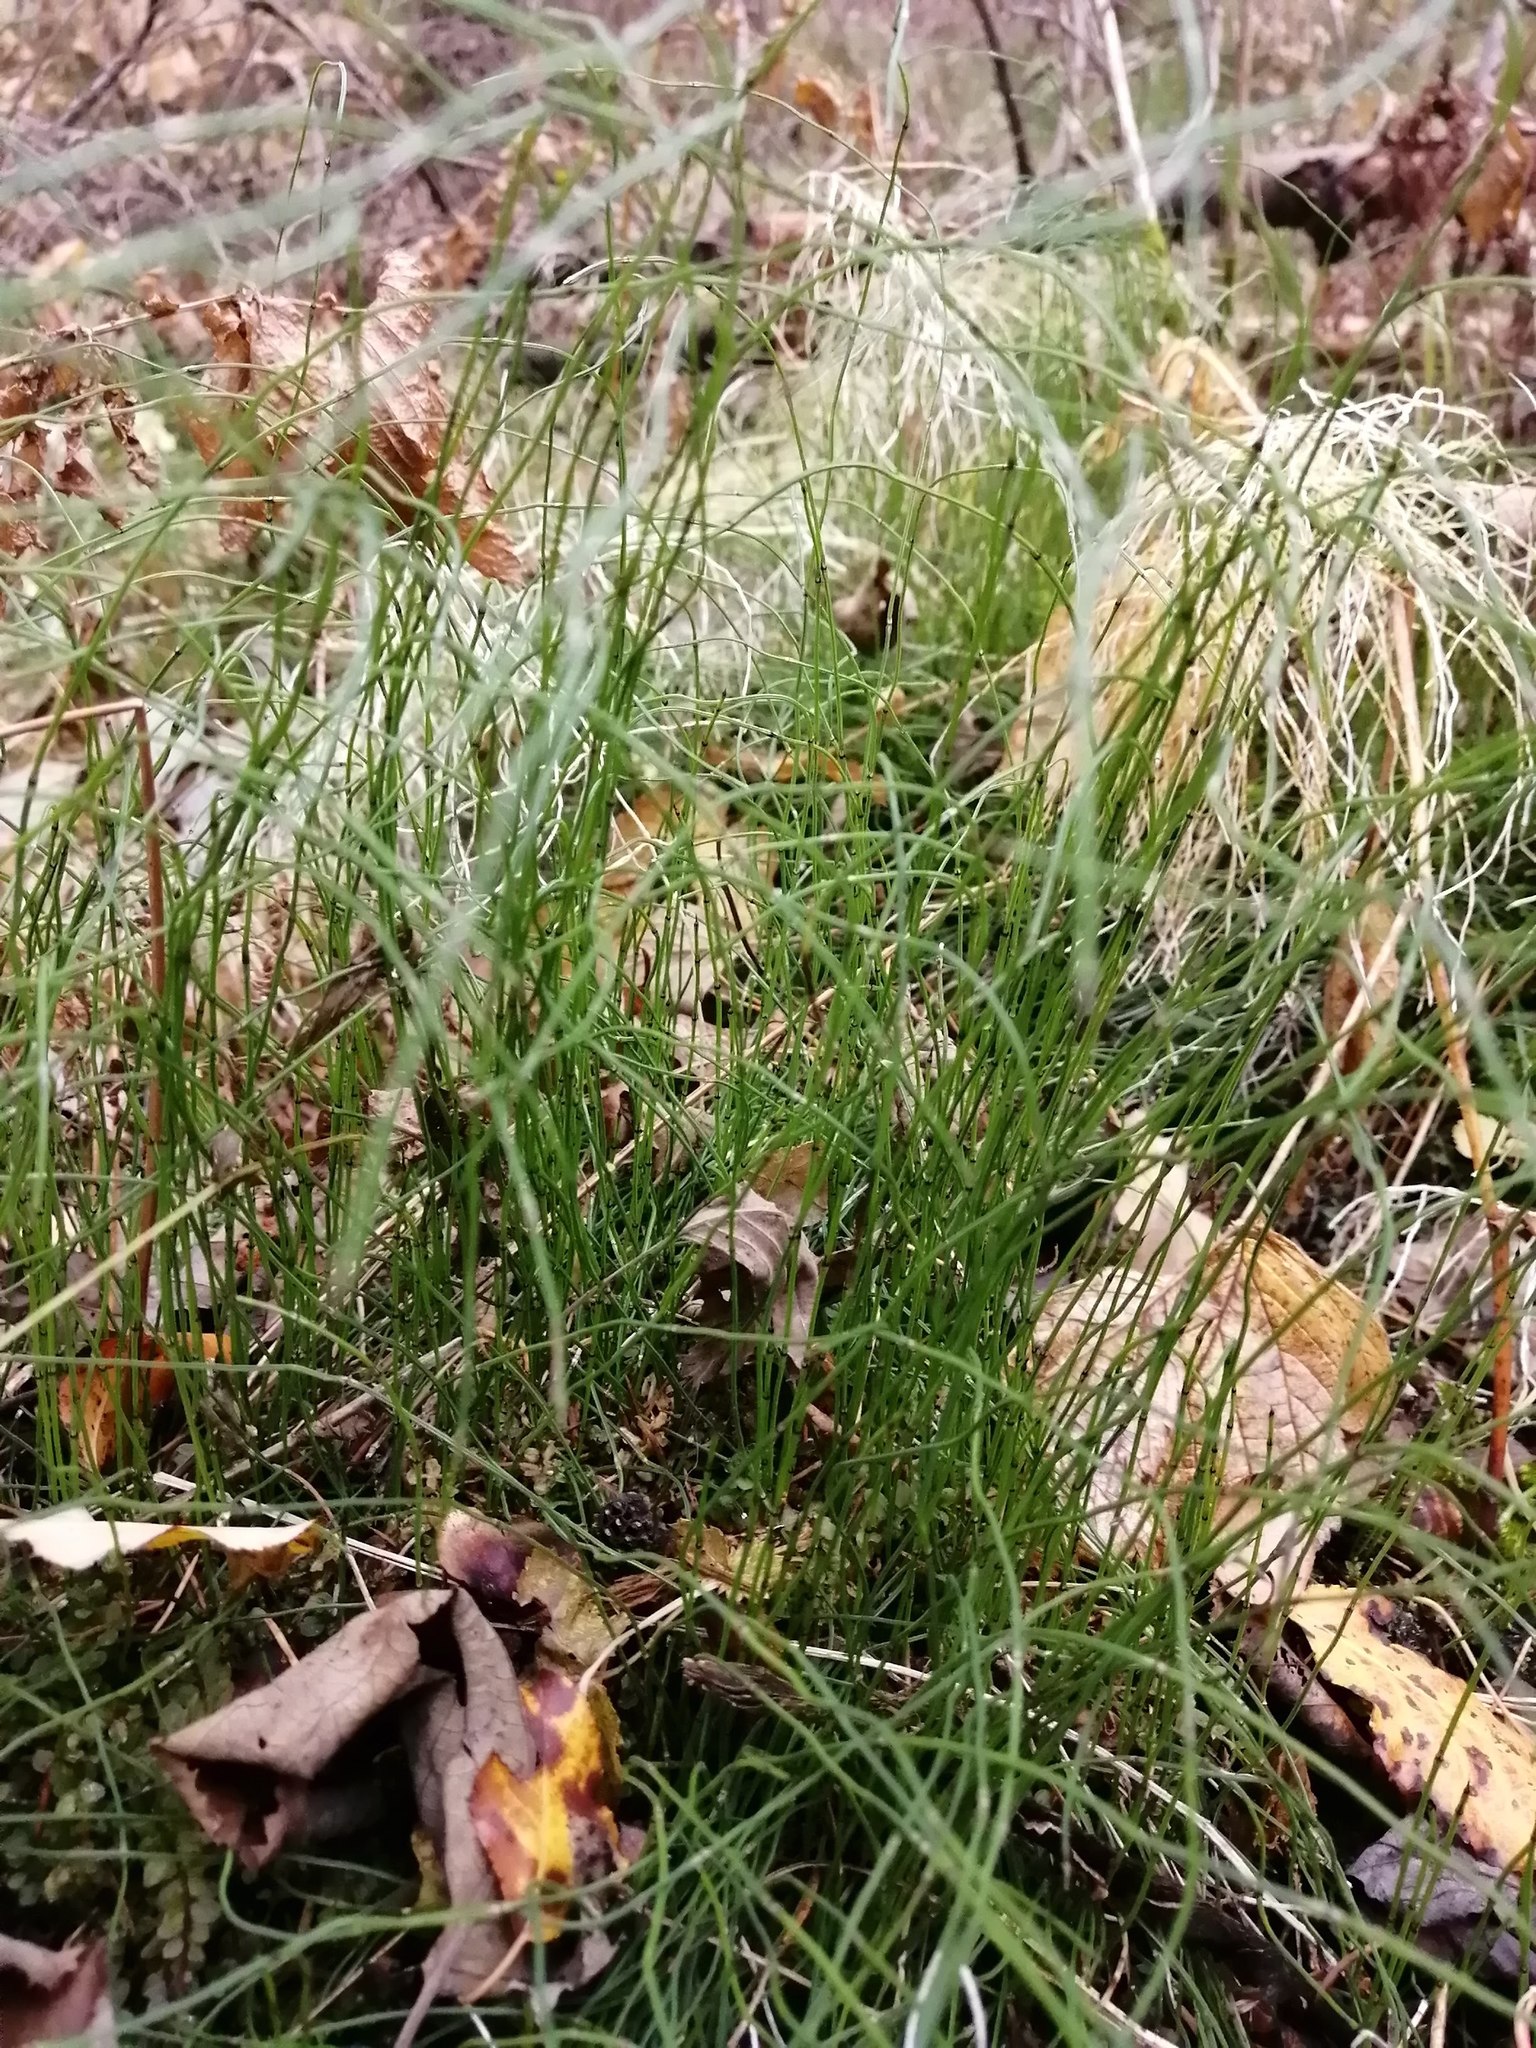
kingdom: Plantae
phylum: Tracheophyta
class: Polypodiopsida
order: Equisetales
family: Equisetaceae
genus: Equisetum
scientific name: Equisetum scirpoides
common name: Delicate horsetail
